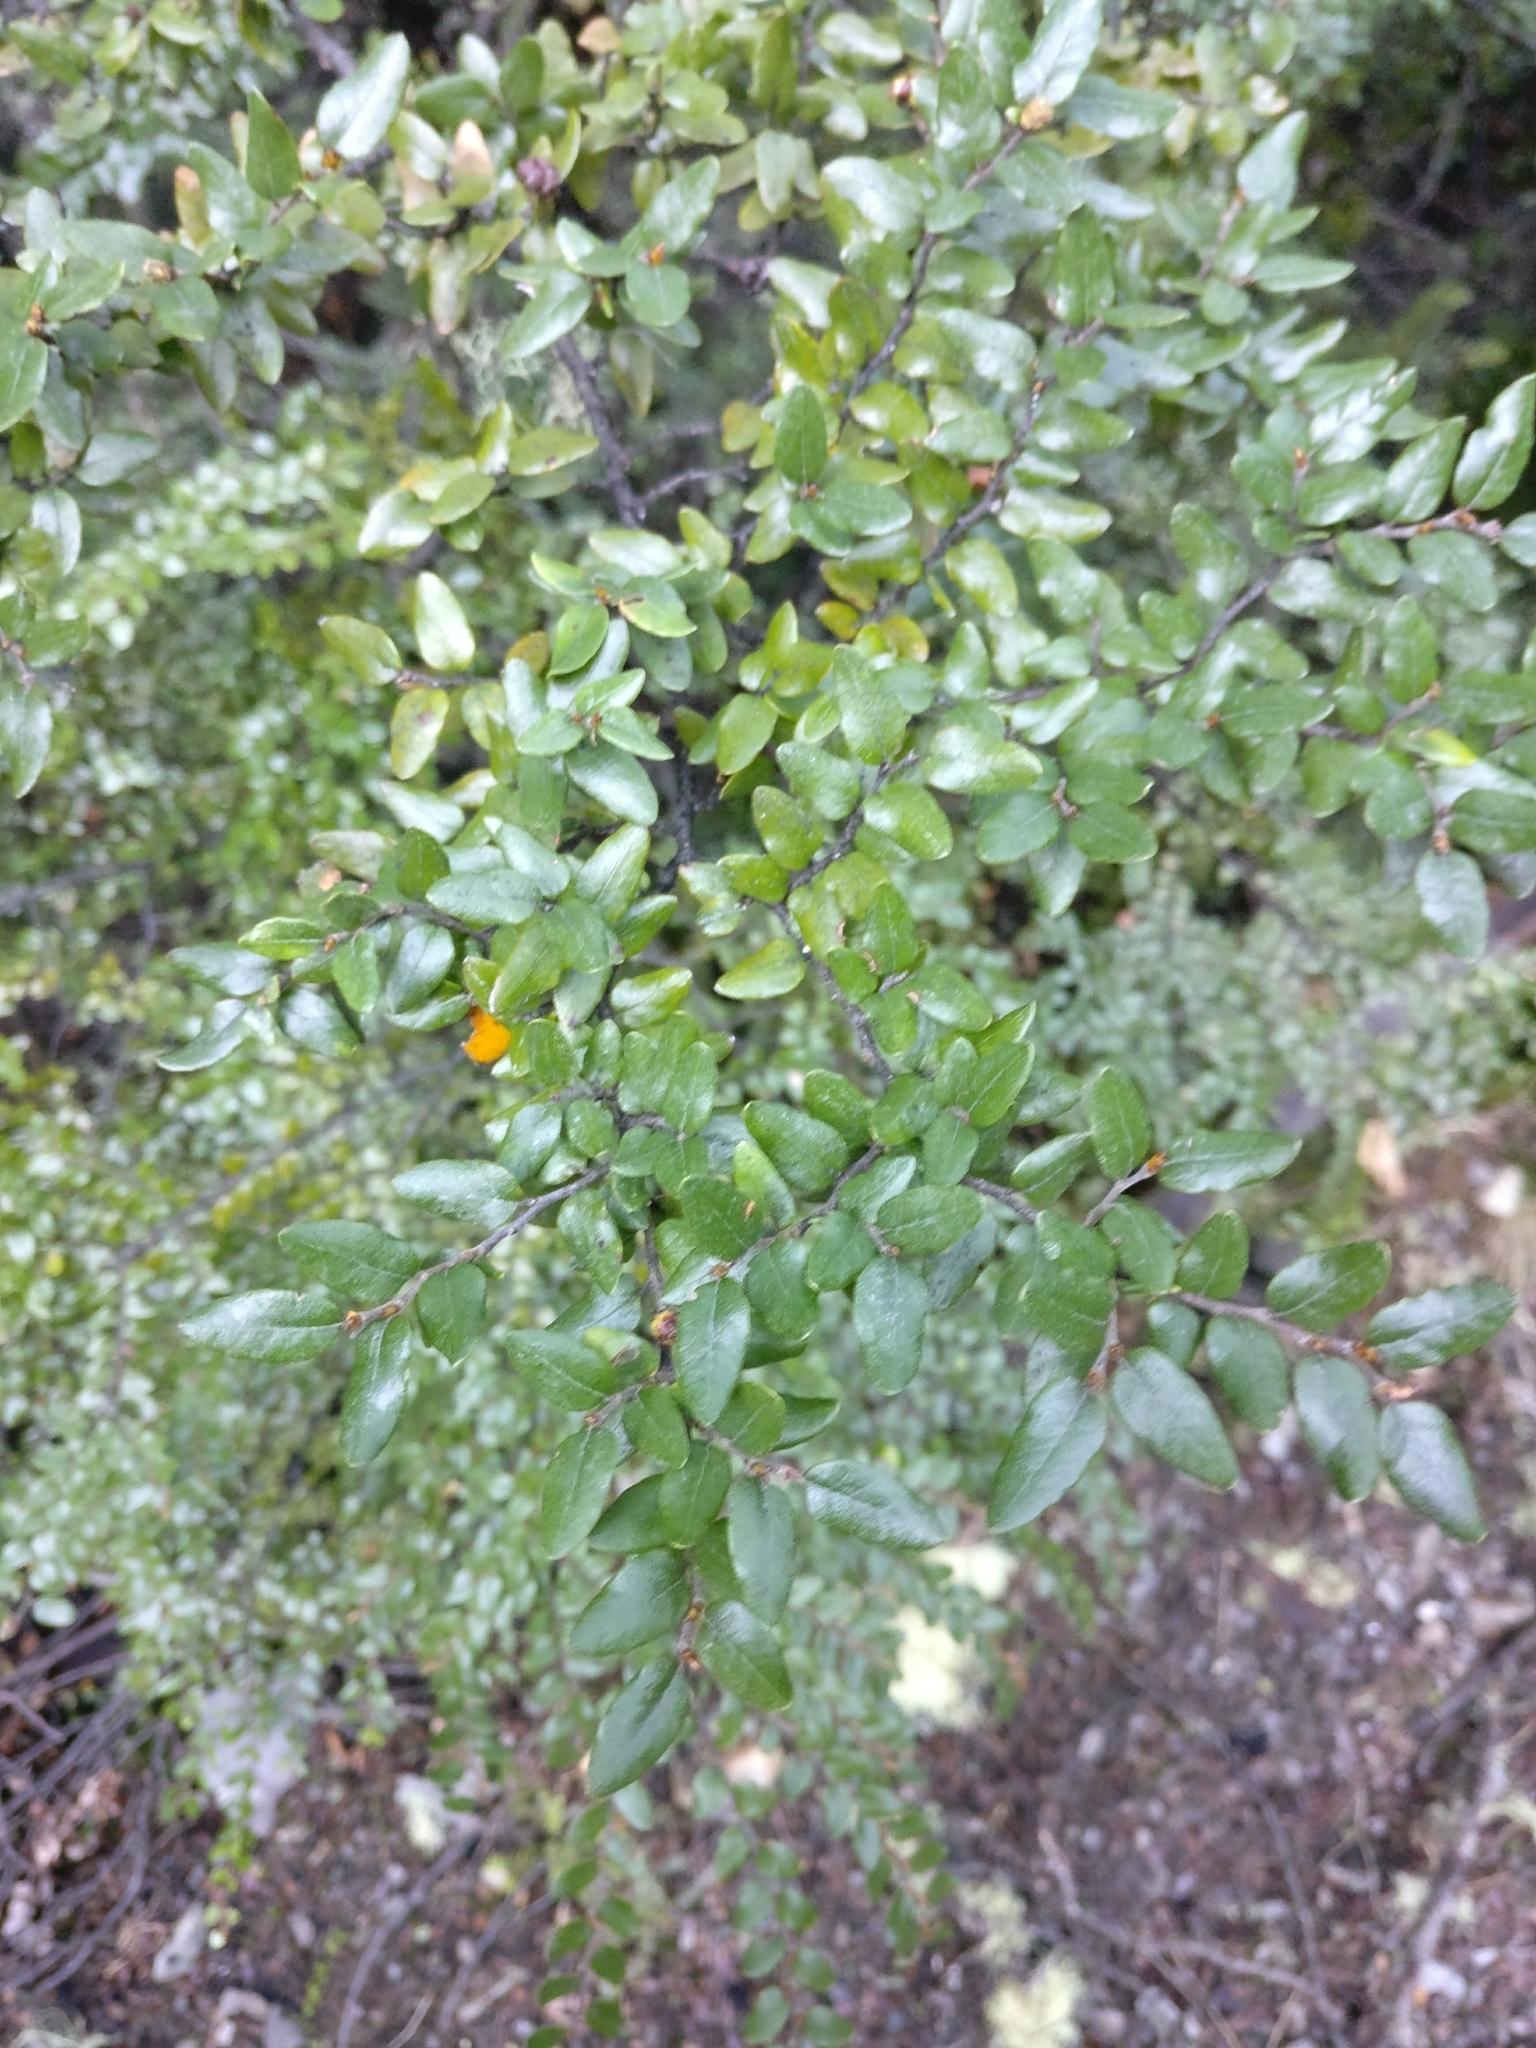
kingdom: Plantae
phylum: Tracheophyta
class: Magnoliopsida
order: Fagales
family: Nothofagaceae
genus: Nothofagus
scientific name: Nothofagus cliffortioides
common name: Mountain beech
